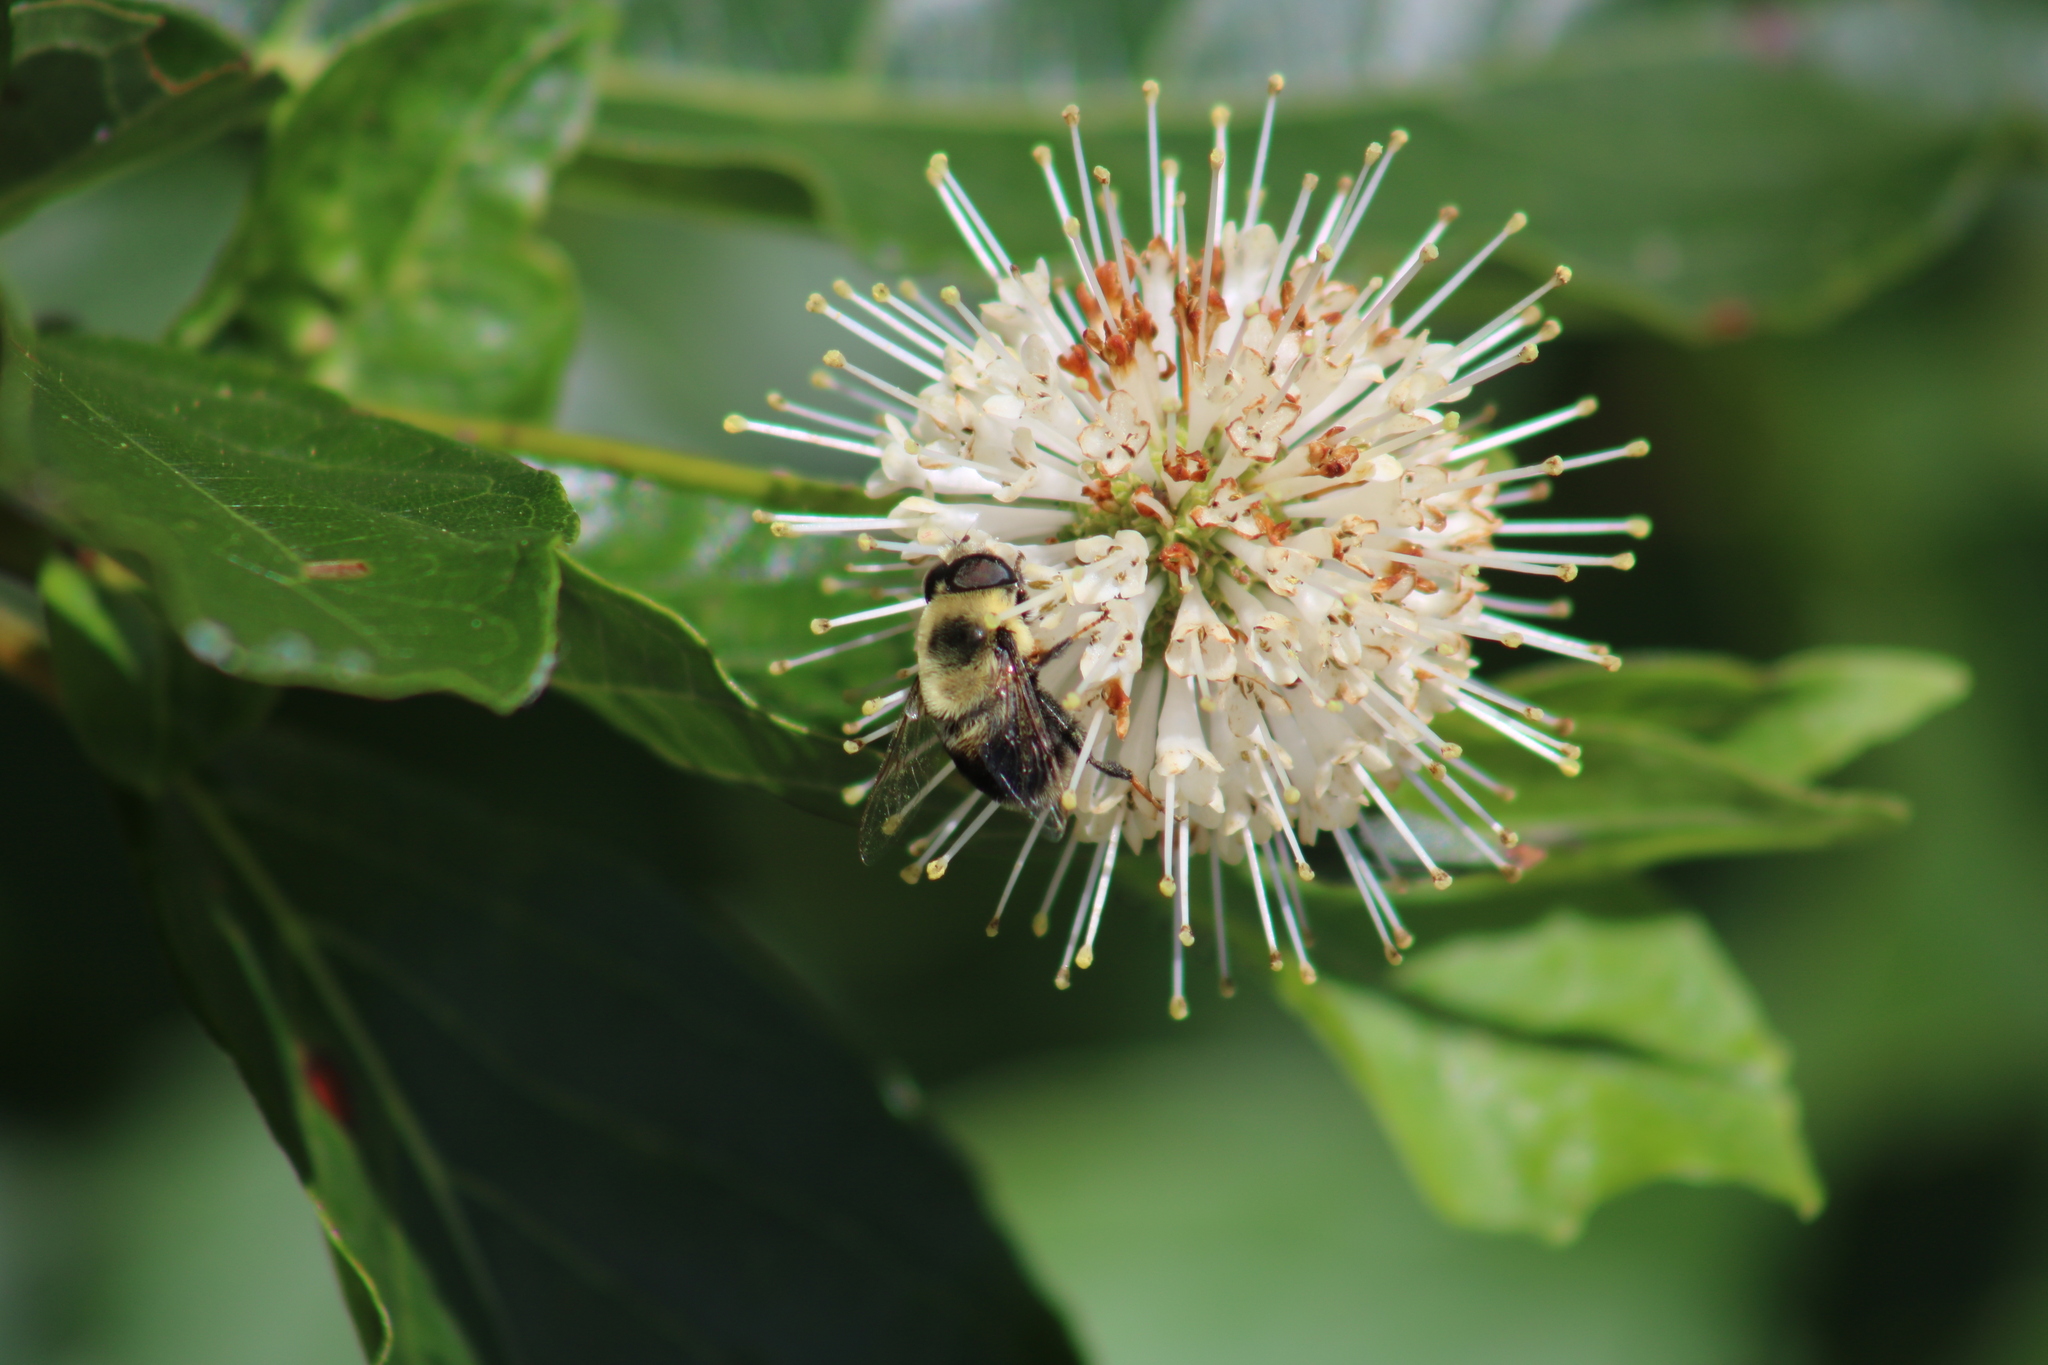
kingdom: Animalia
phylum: Arthropoda
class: Insecta
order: Diptera
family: Syrphidae
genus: Eristalis
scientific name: Eristalis flavipes
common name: Orange-legged drone fly
